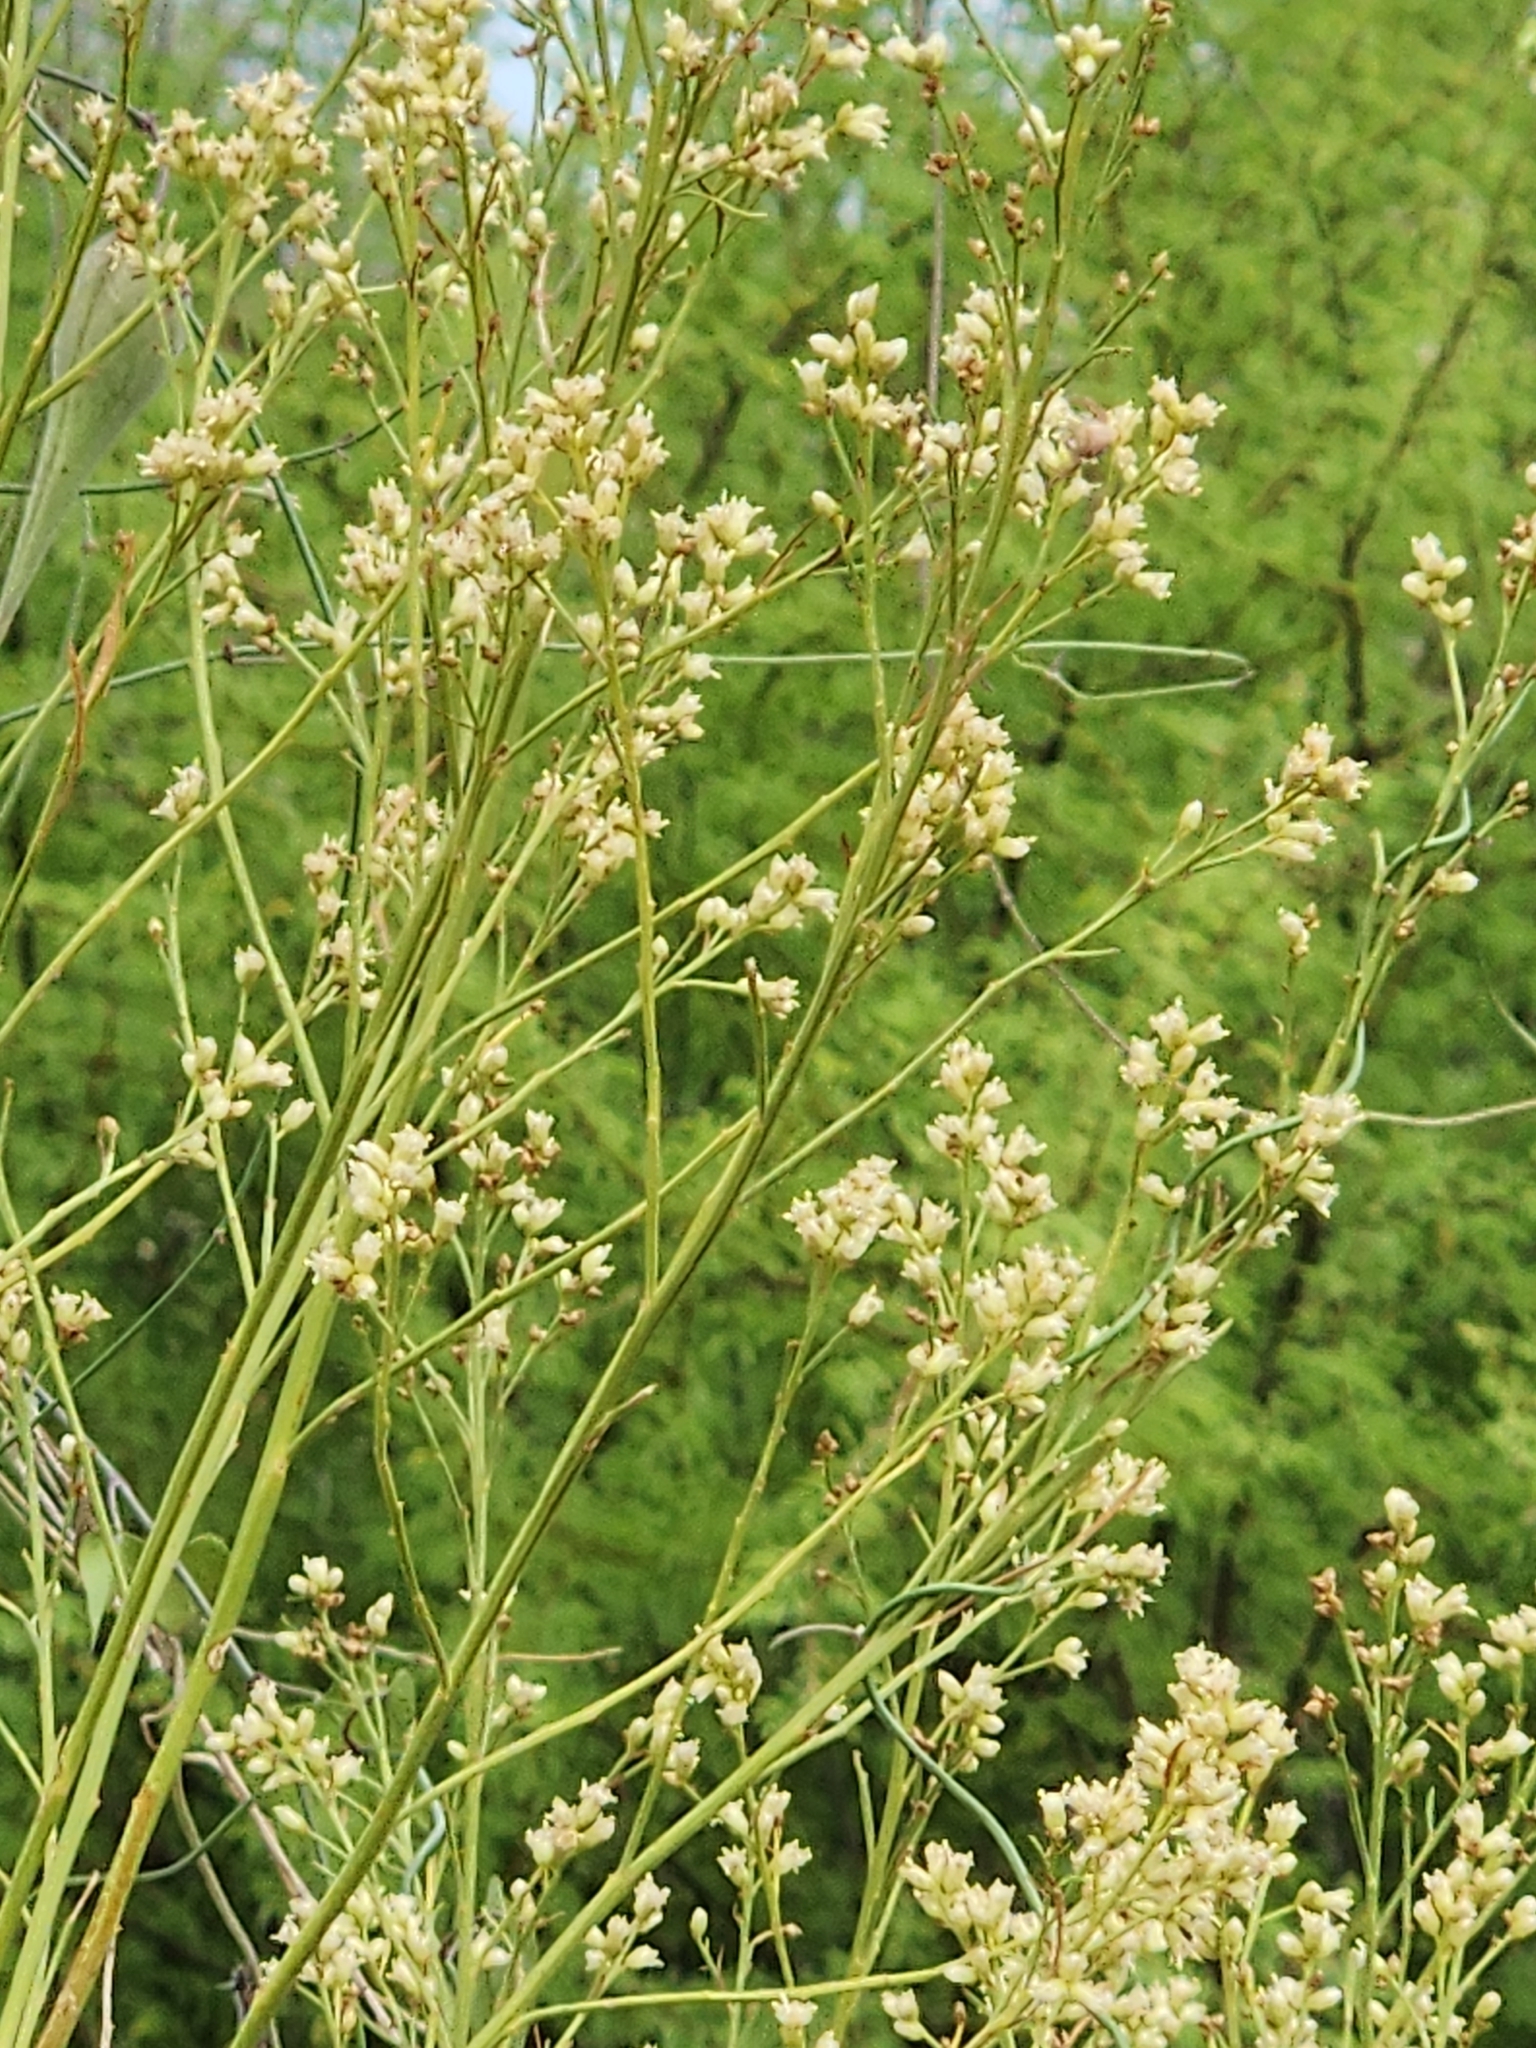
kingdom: Plantae
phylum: Tracheophyta
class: Magnoliopsida
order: Asterales
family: Asteraceae
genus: Baccharis
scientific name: Baccharis neglecta
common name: Roosevelt-weed
